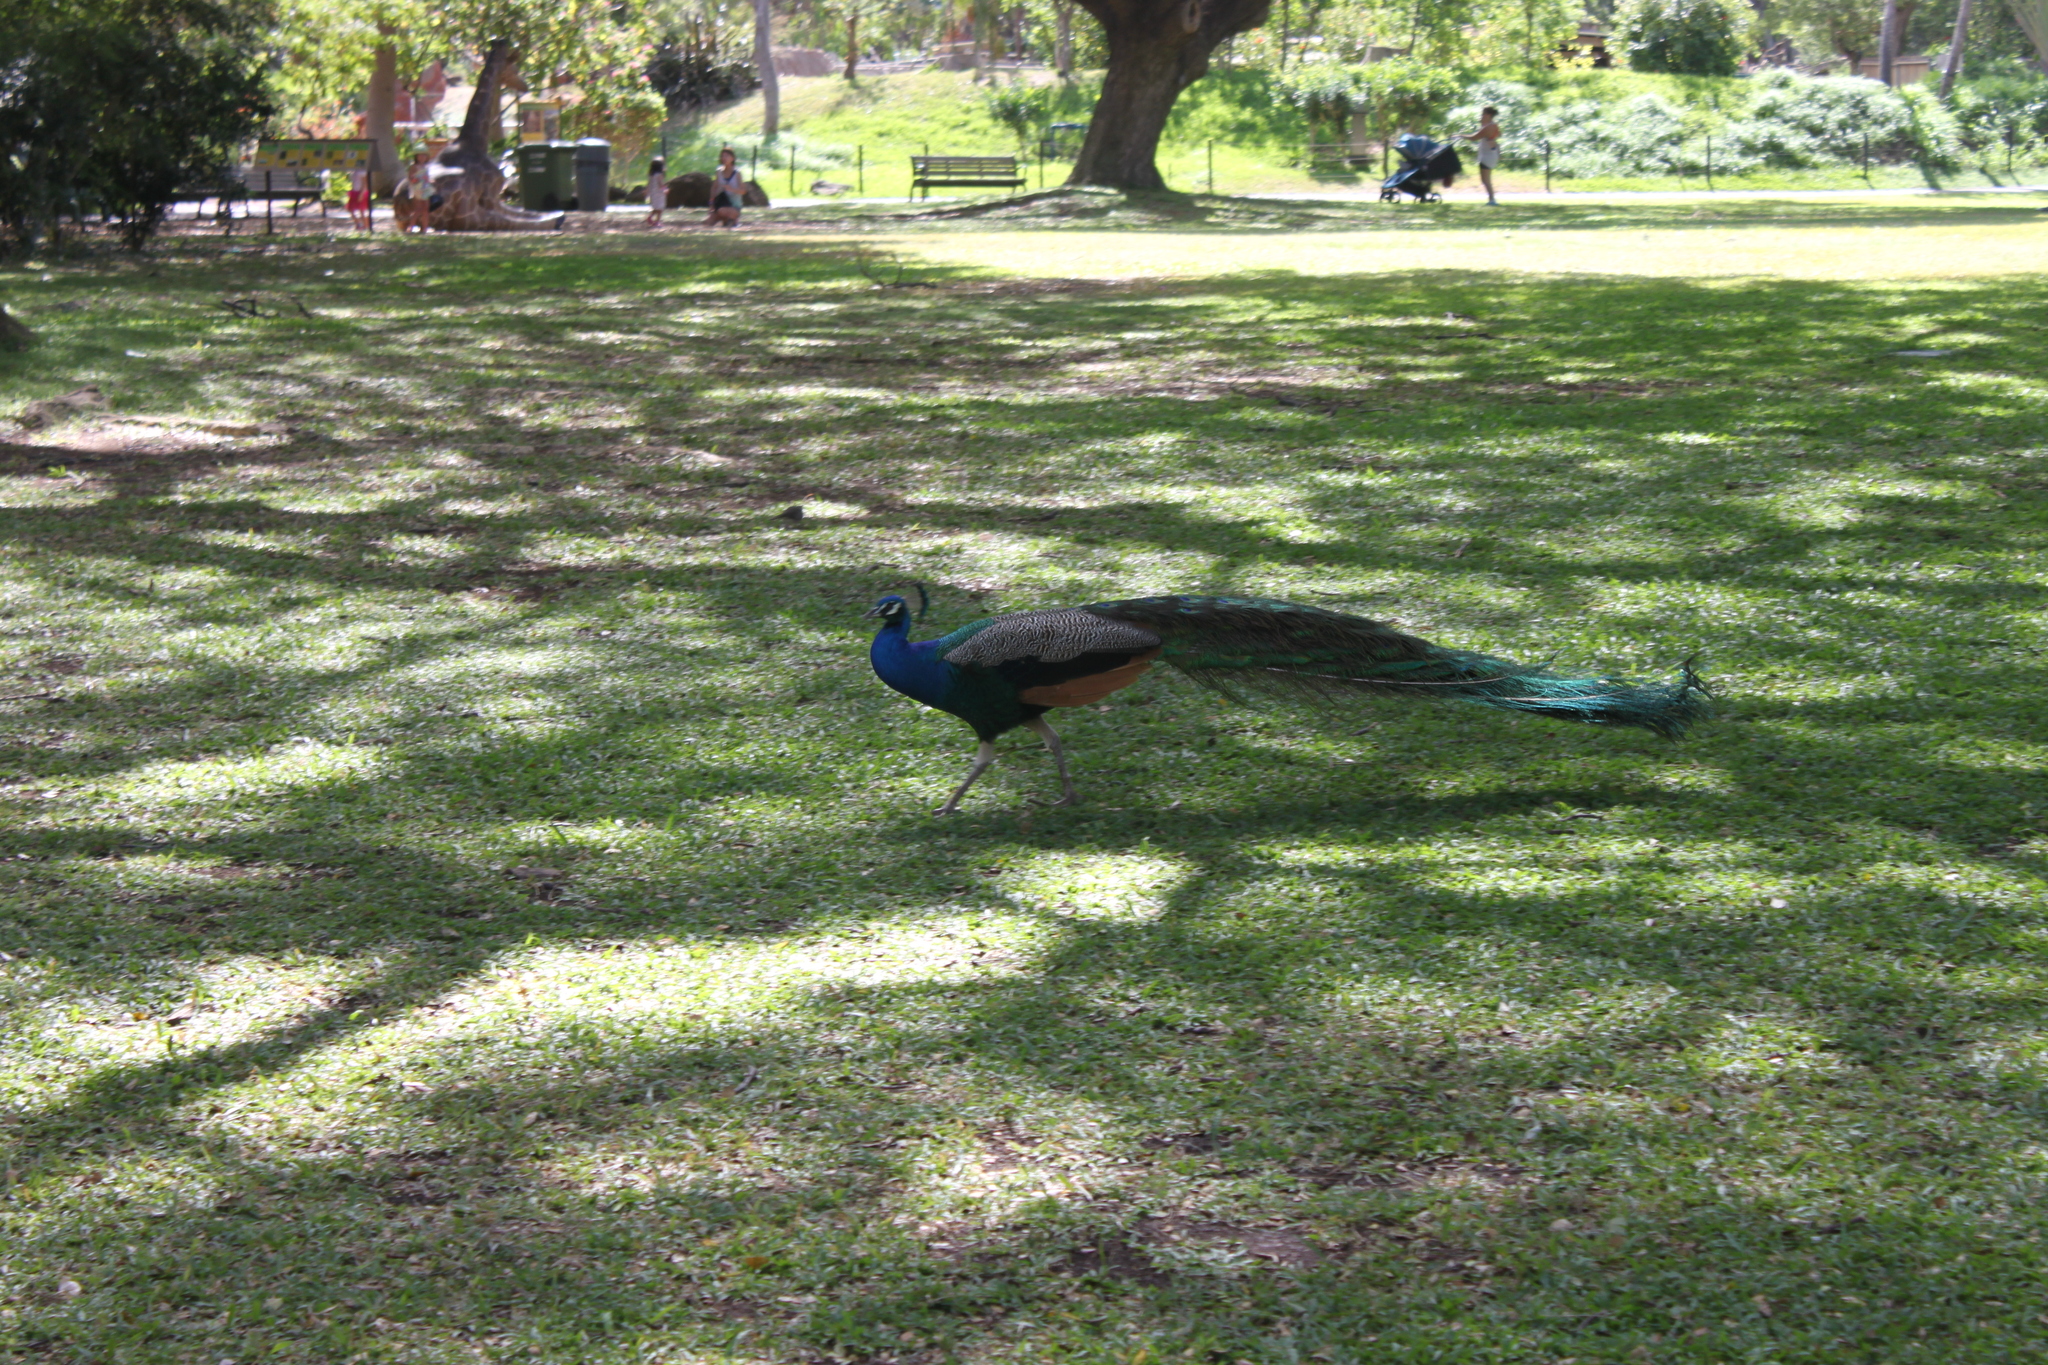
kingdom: Animalia
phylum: Chordata
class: Aves
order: Galliformes
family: Phasianidae
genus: Pavo
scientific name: Pavo cristatus
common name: Indian peafowl
